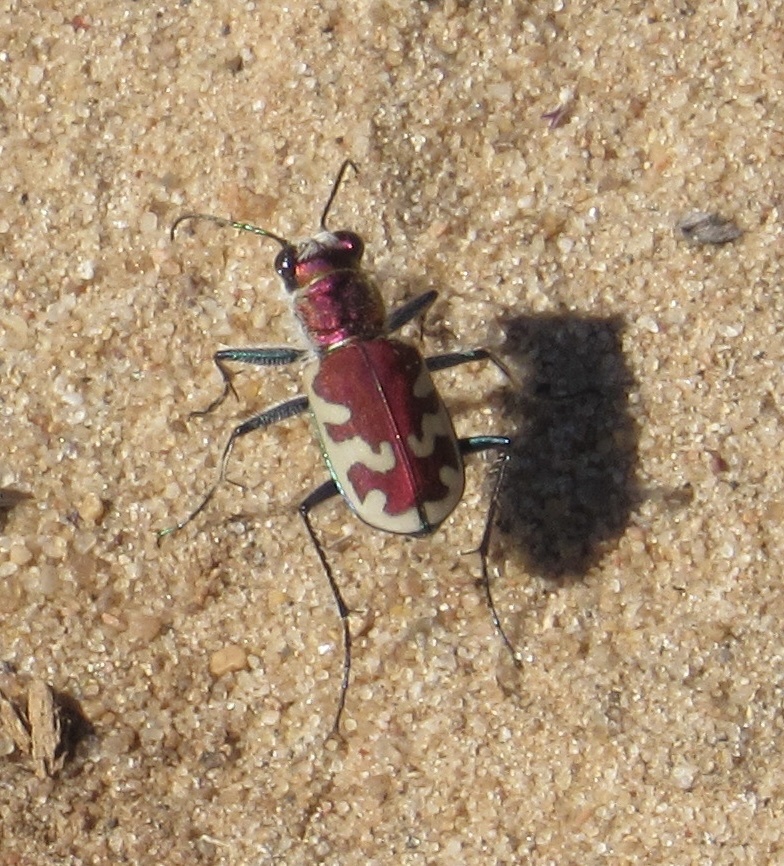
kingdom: Animalia
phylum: Arthropoda
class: Insecta
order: Coleoptera
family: Carabidae
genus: Cicindela
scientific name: Cicindela formosa
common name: Big sand tiger beetle
